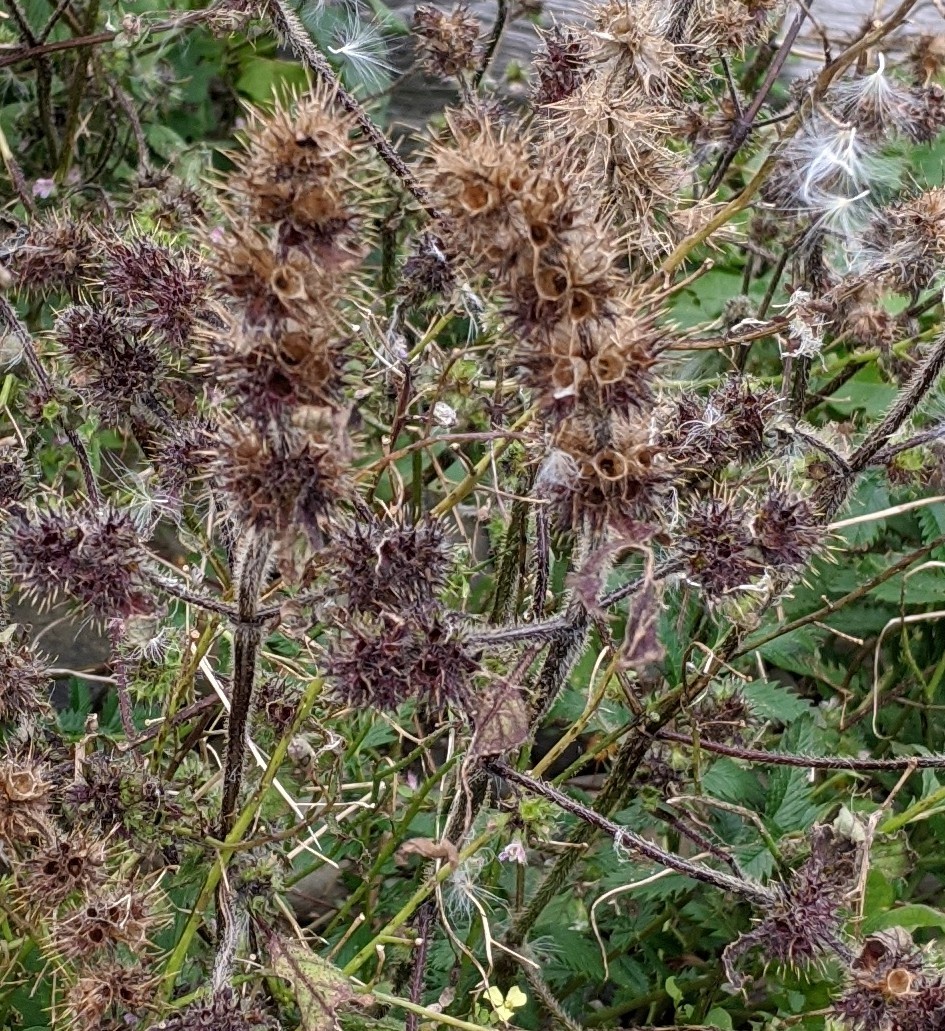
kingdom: Plantae
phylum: Tracheophyta
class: Magnoliopsida
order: Lamiales
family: Lamiaceae
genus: Galeopsis
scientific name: Galeopsis tetrahit
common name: Common hemp-nettle
